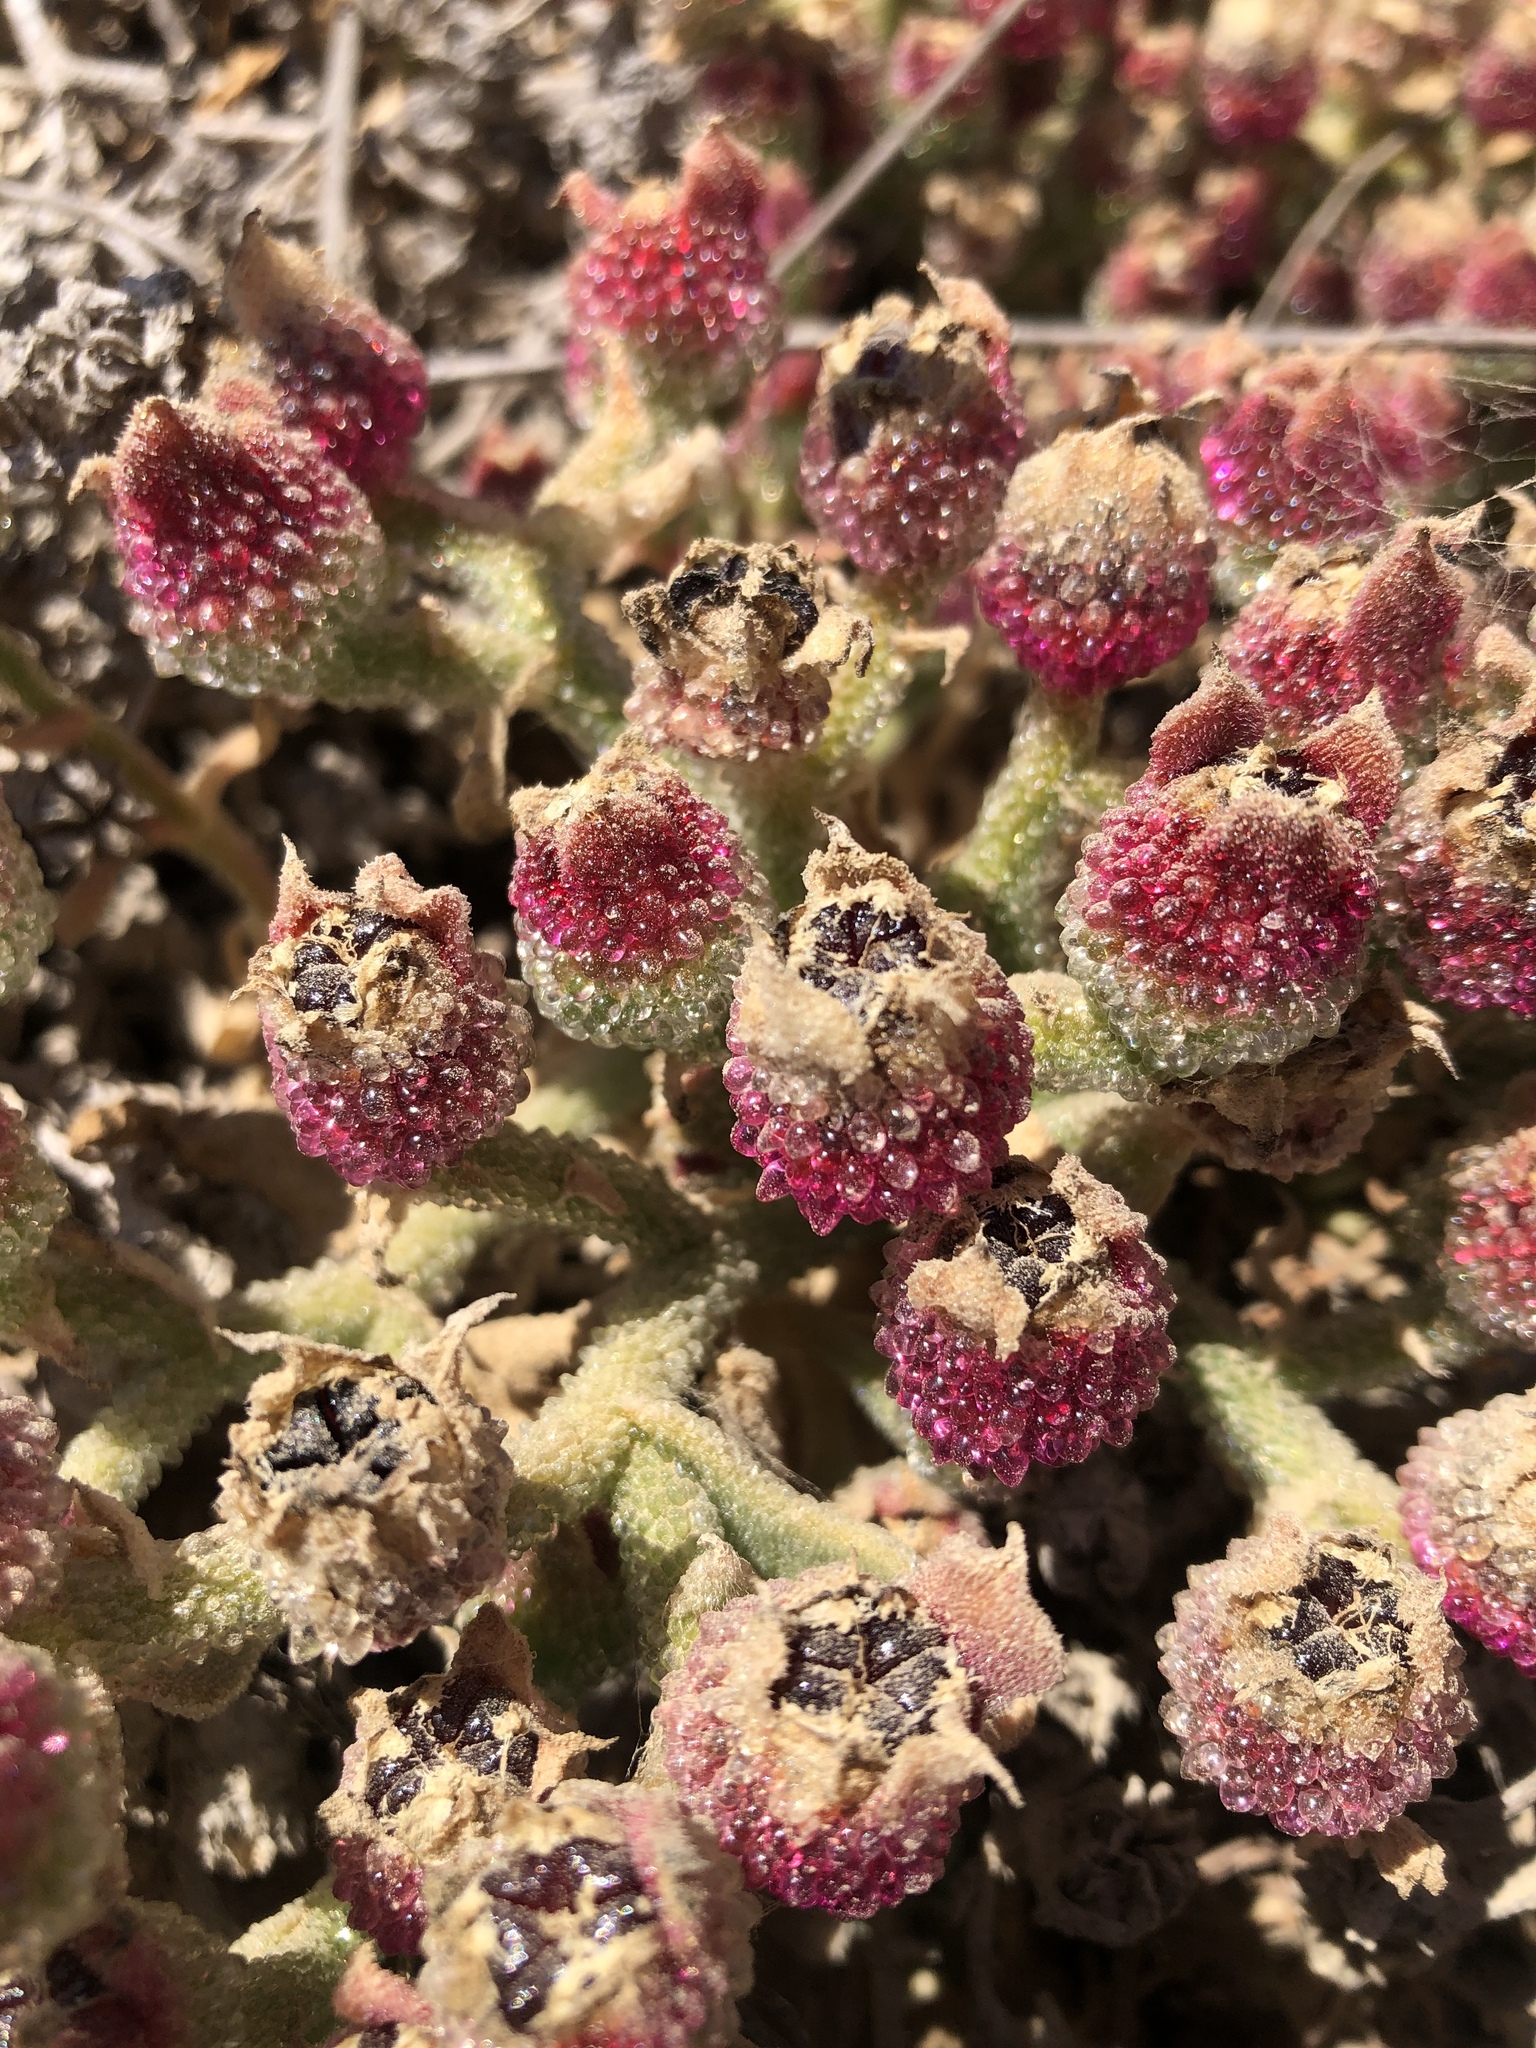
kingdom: Plantae
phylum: Tracheophyta
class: Magnoliopsida
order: Caryophyllales
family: Aizoaceae
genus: Mesembryanthemum
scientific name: Mesembryanthemum crystallinum
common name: Common iceplant
